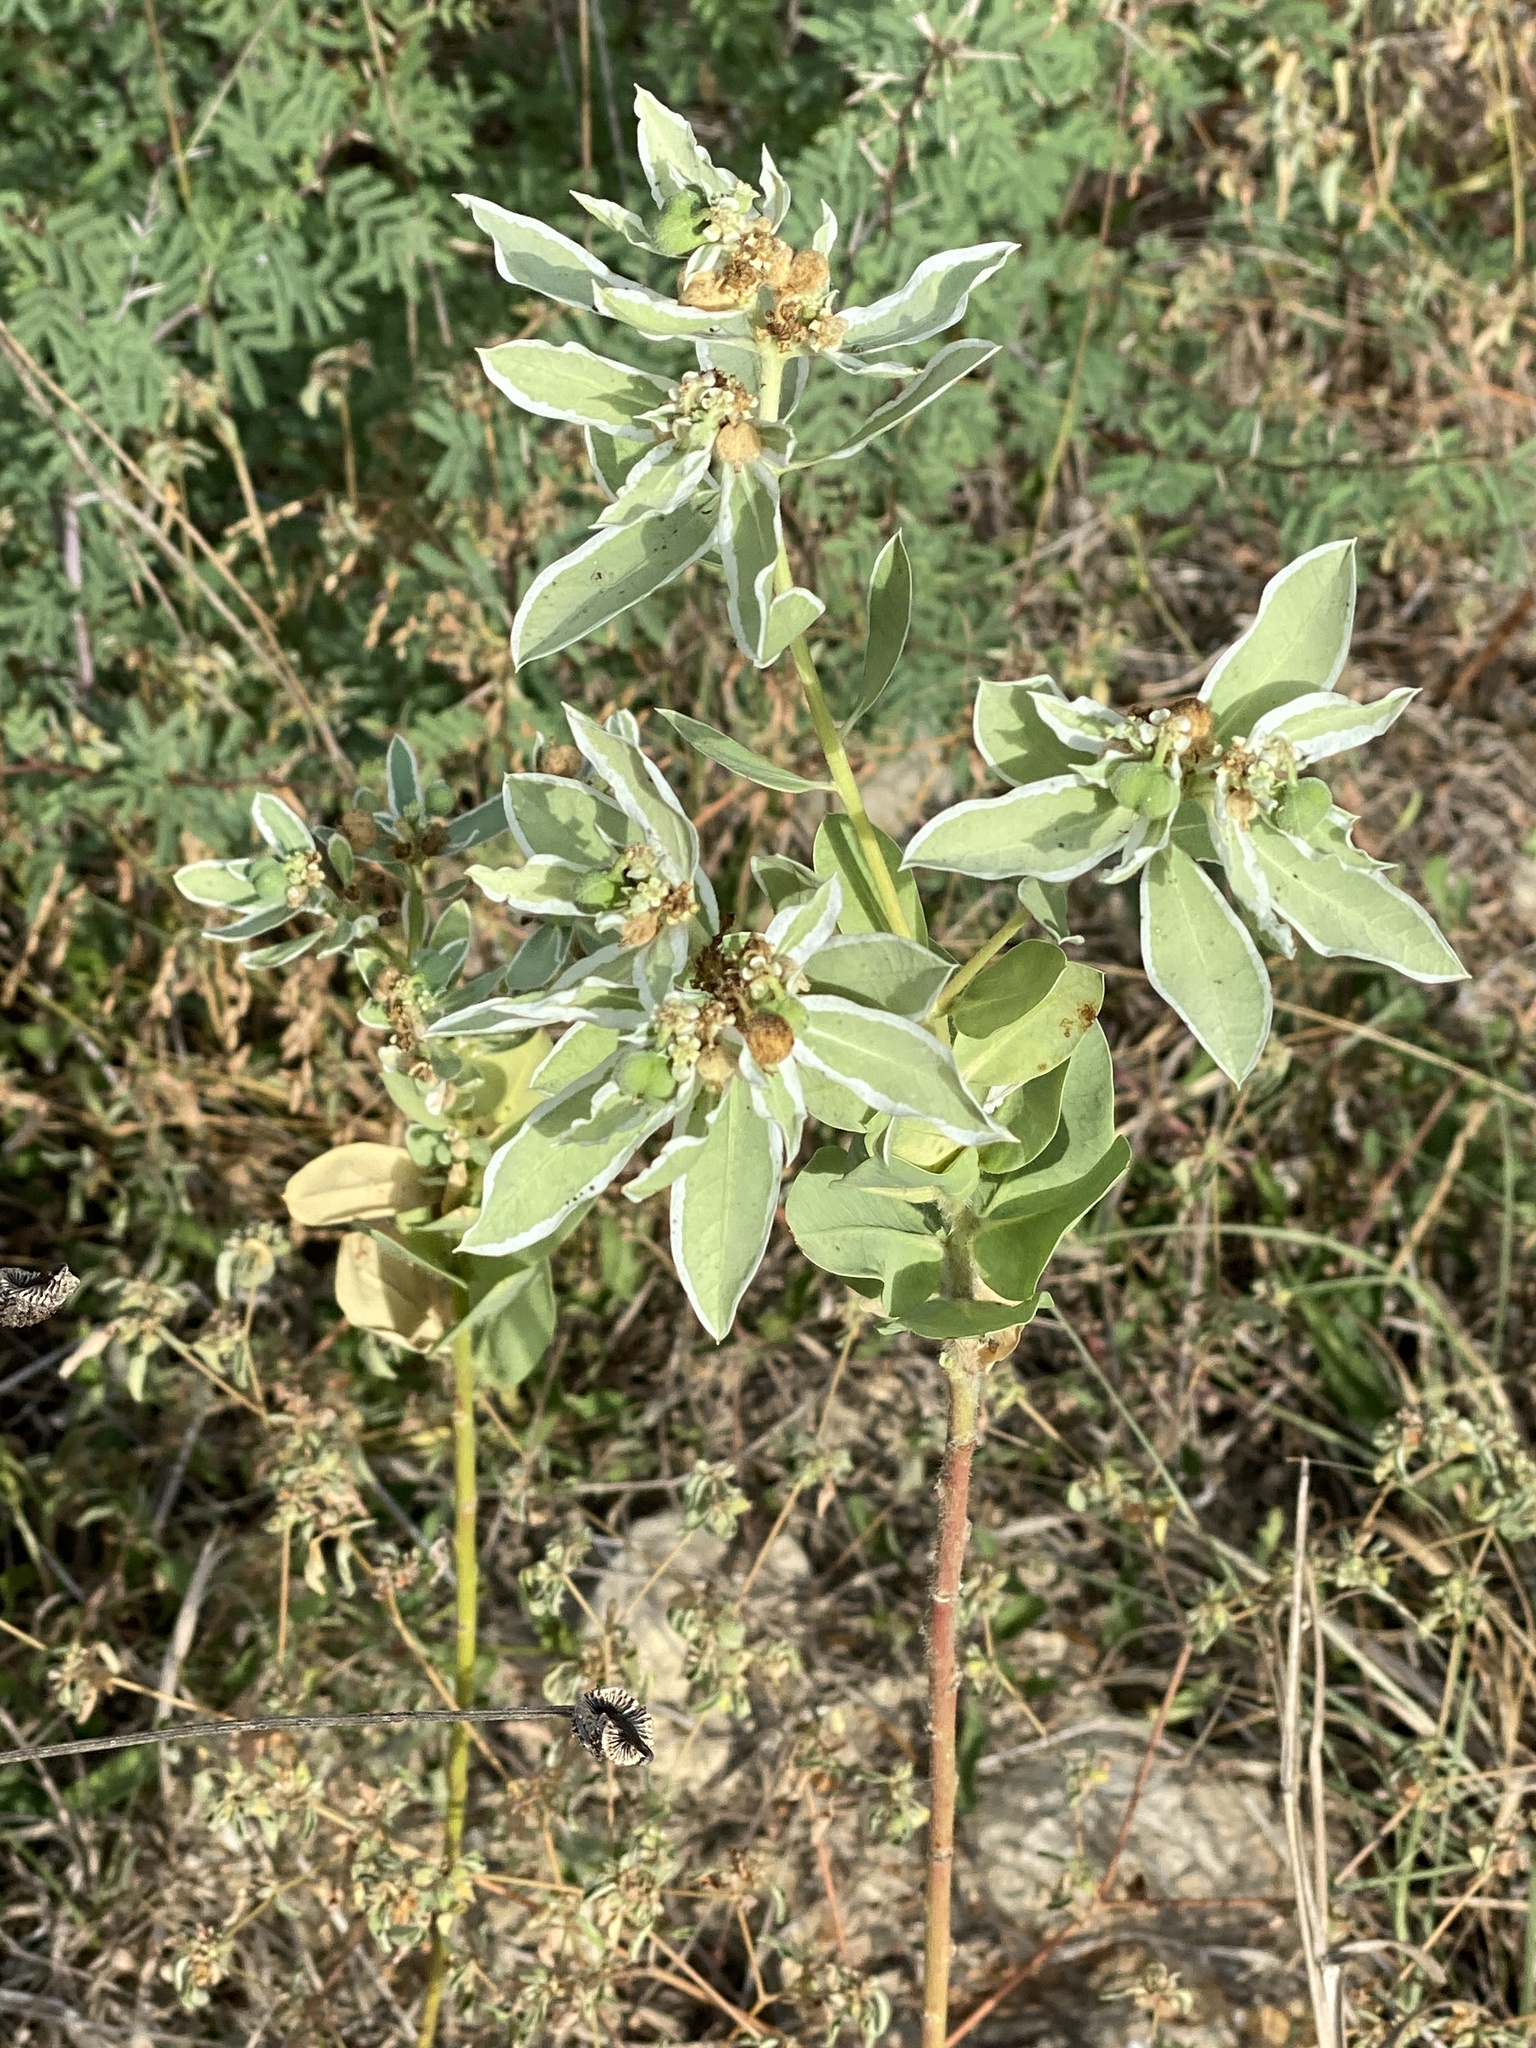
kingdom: Plantae
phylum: Tracheophyta
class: Magnoliopsida
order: Malpighiales
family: Euphorbiaceae
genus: Euphorbia
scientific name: Euphorbia marginata
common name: Ghostweed
